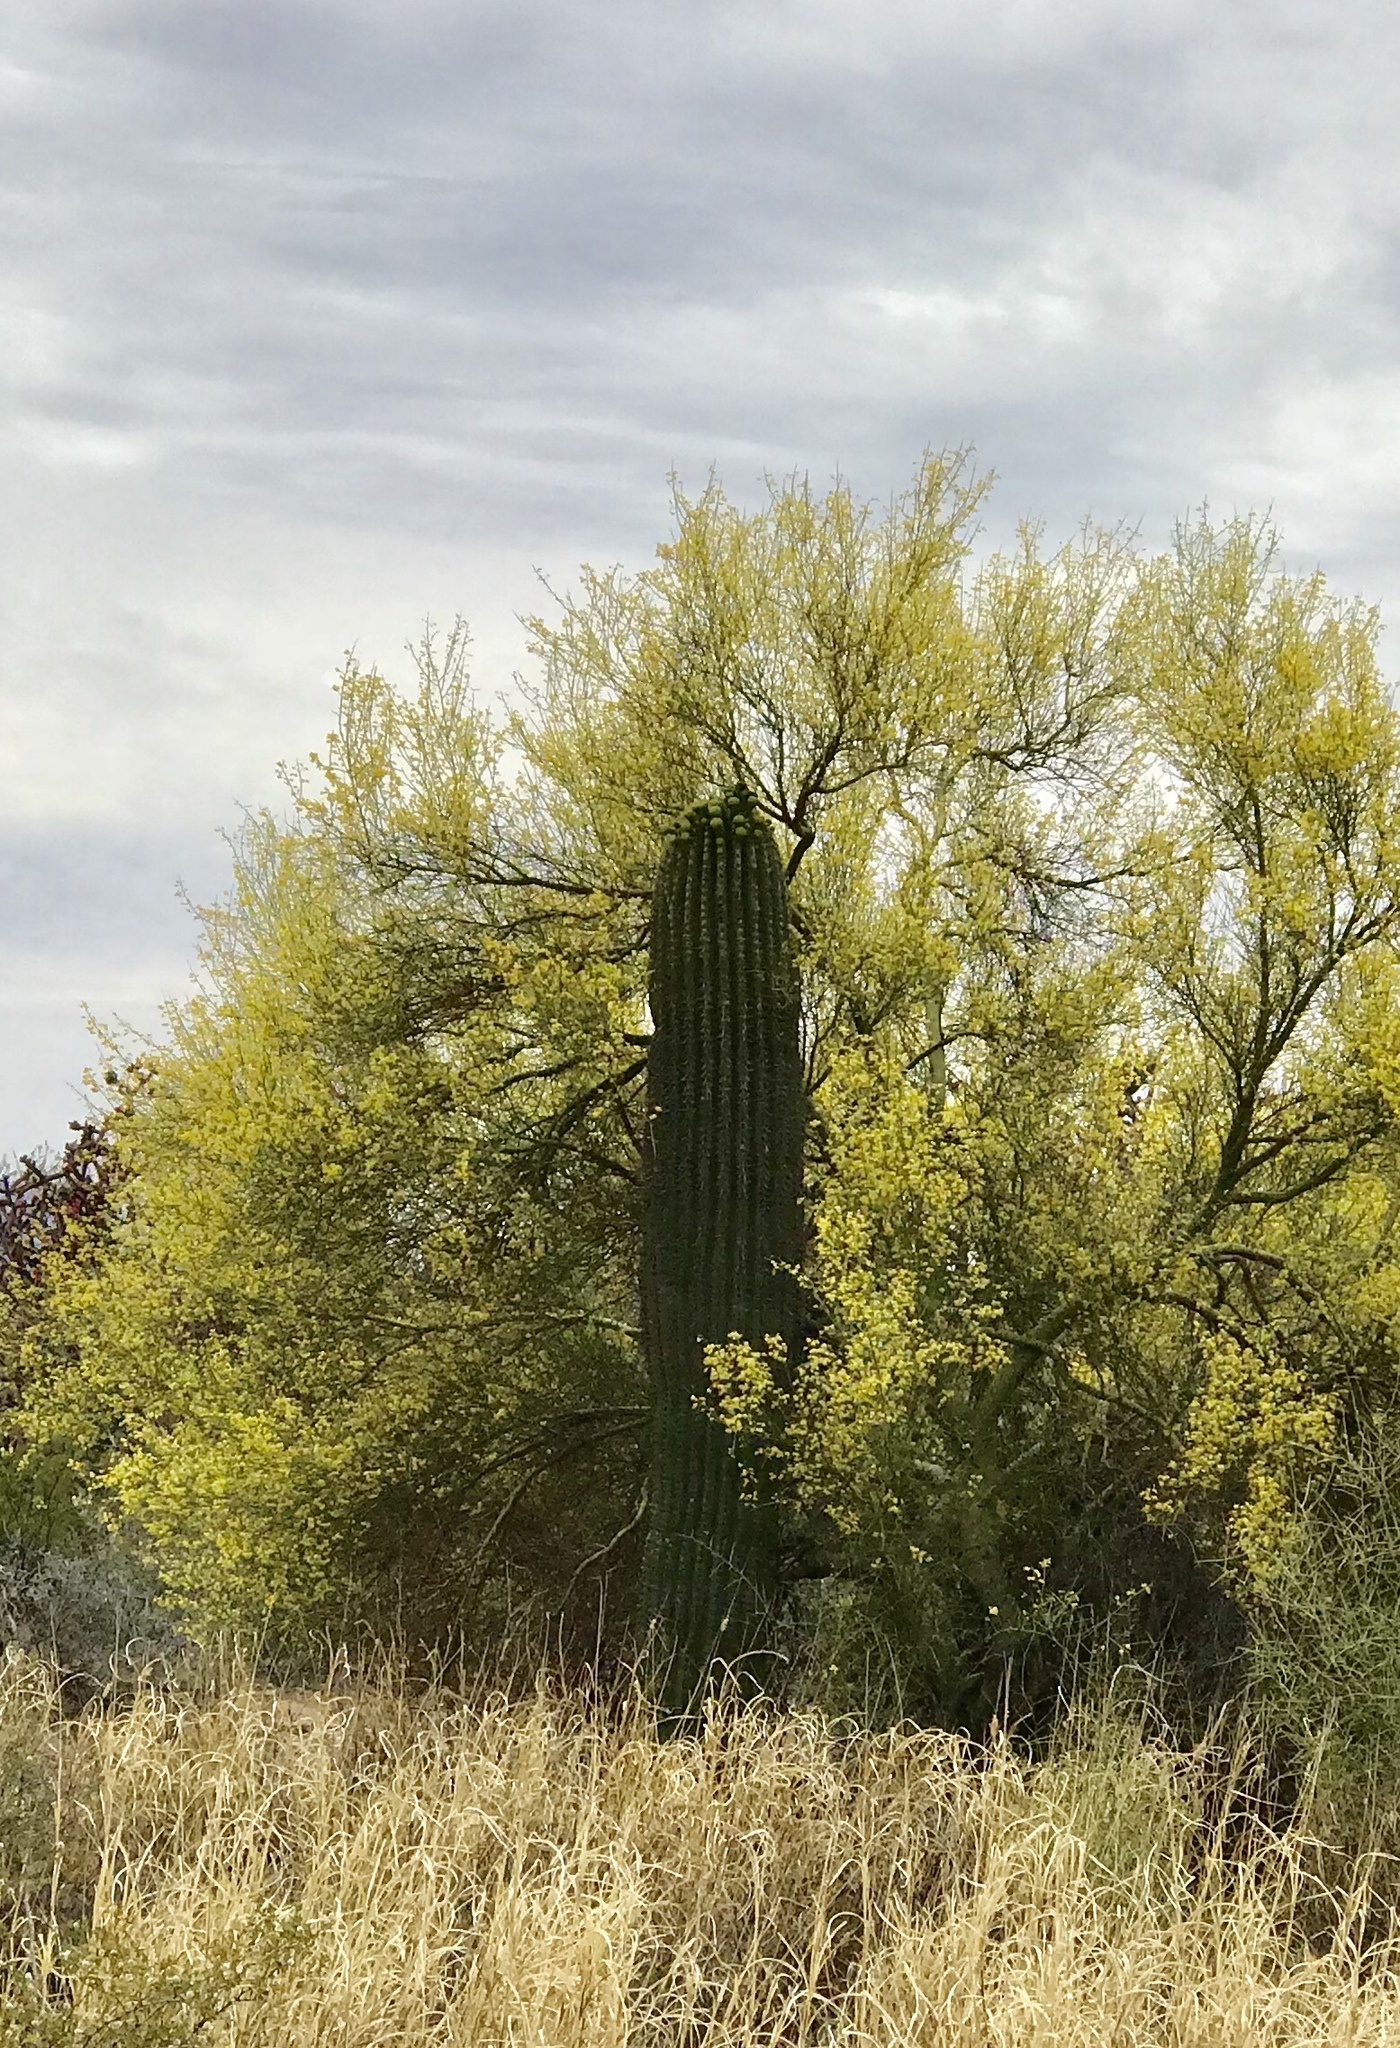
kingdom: Plantae
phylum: Tracheophyta
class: Magnoliopsida
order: Caryophyllales
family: Cactaceae
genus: Carnegiea
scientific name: Carnegiea gigantea
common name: Saguaro
